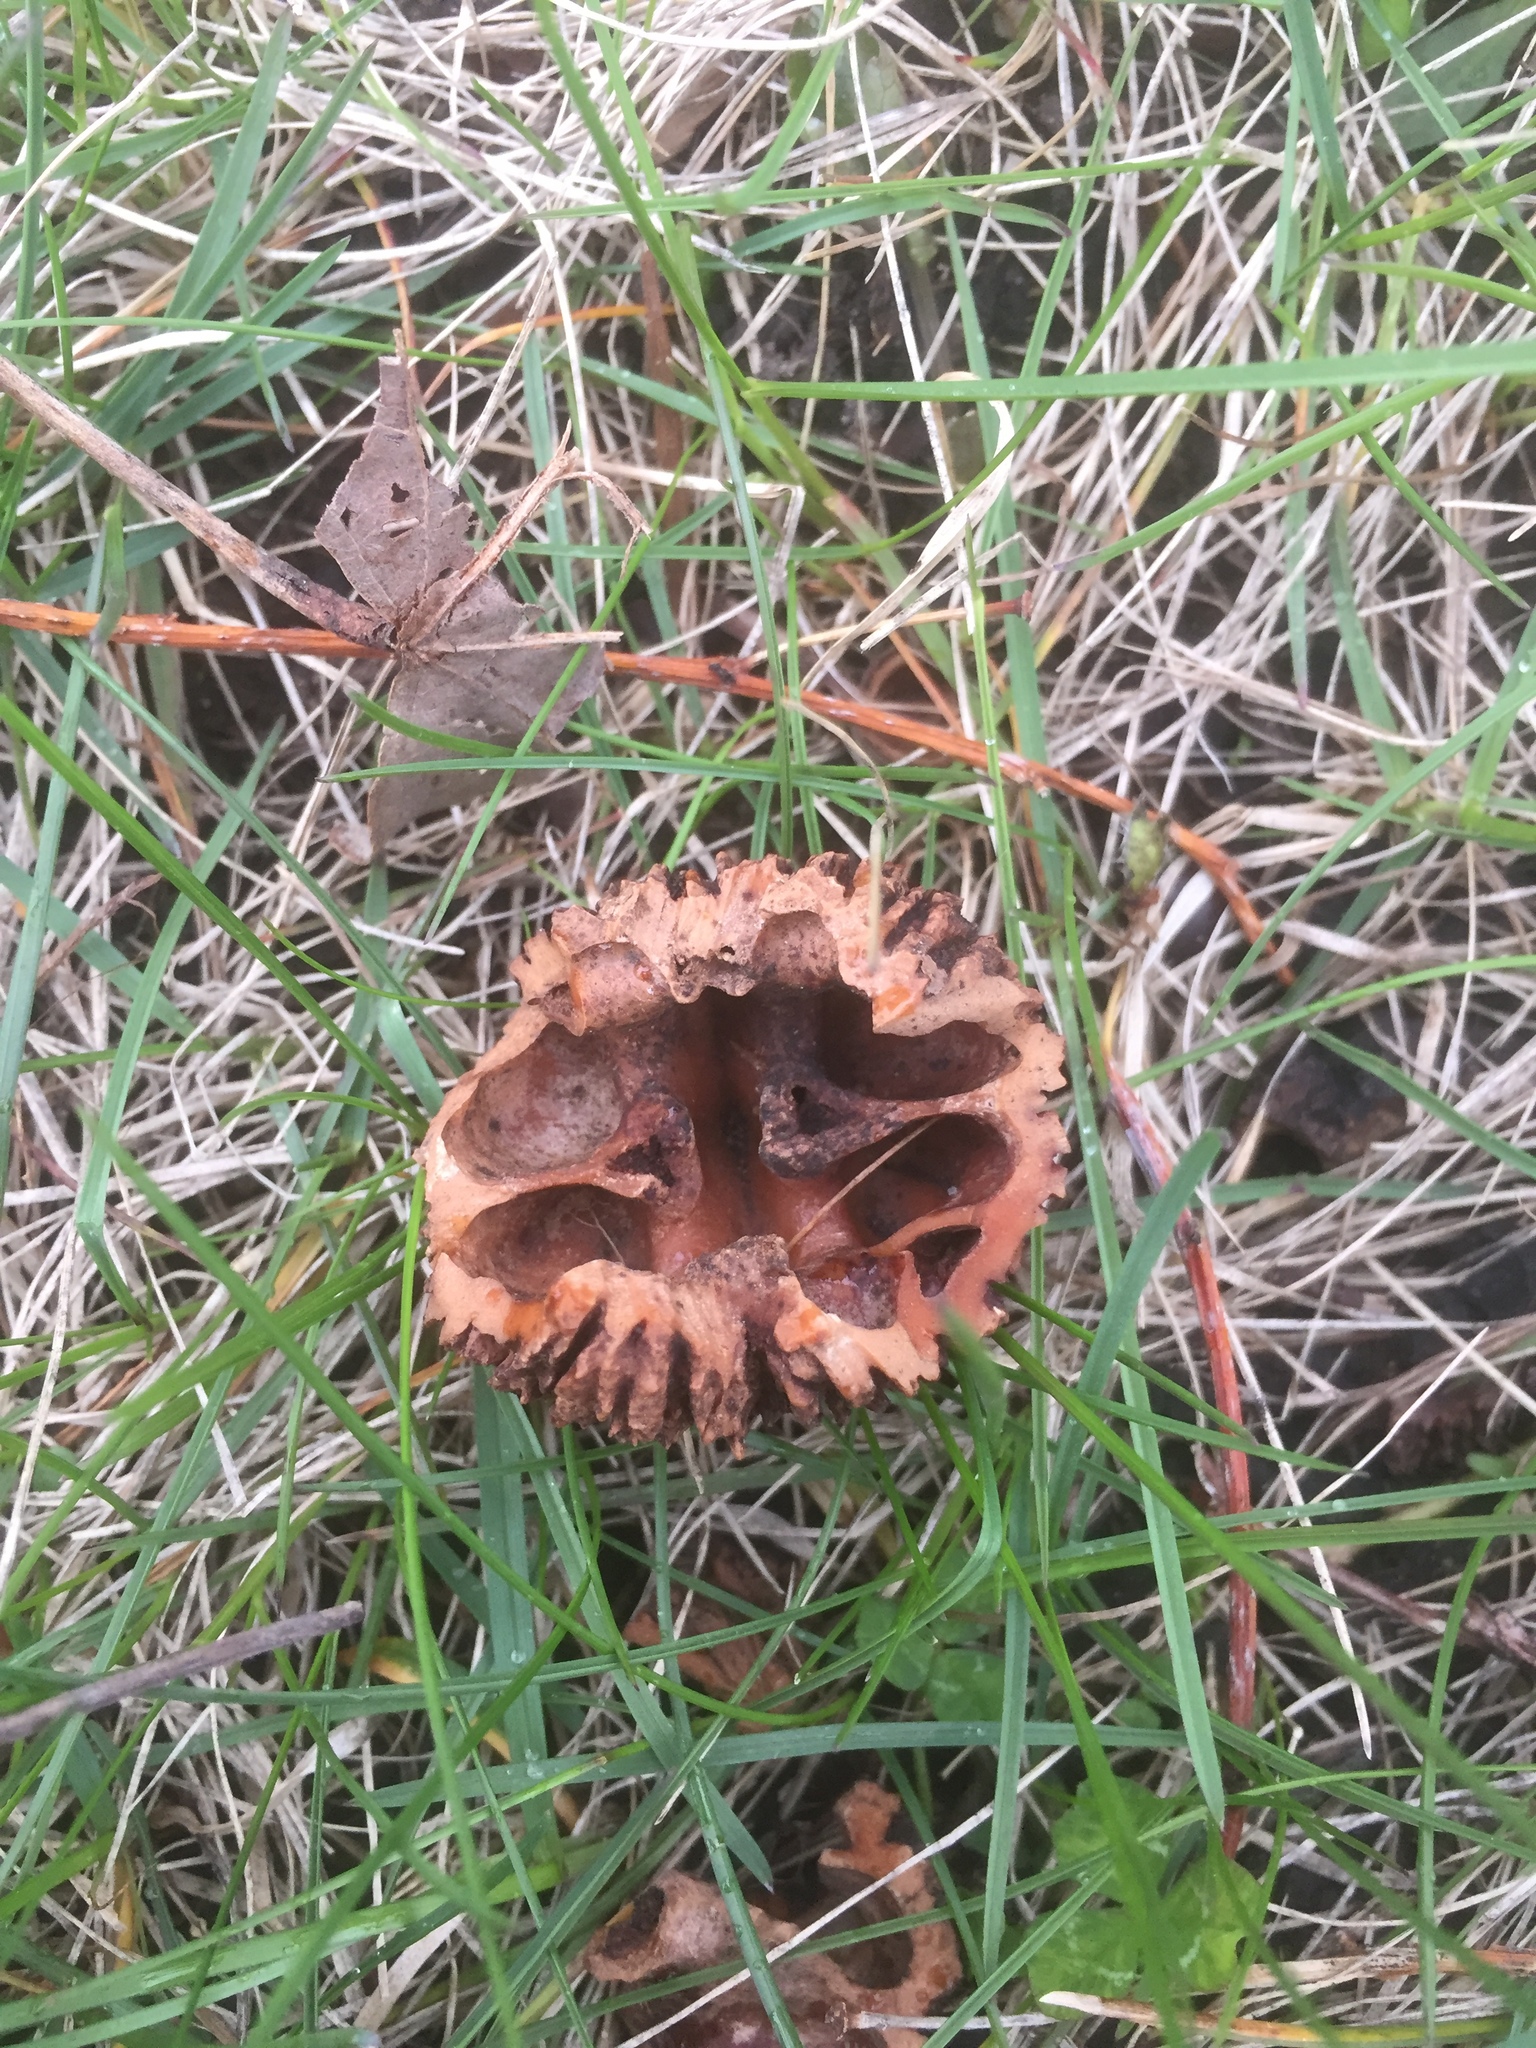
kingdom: Plantae
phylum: Tracheophyta
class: Magnoliopsida
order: Fagales
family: Juglandaceae
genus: Juglans
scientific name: Juglans nigra
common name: Black walnut
